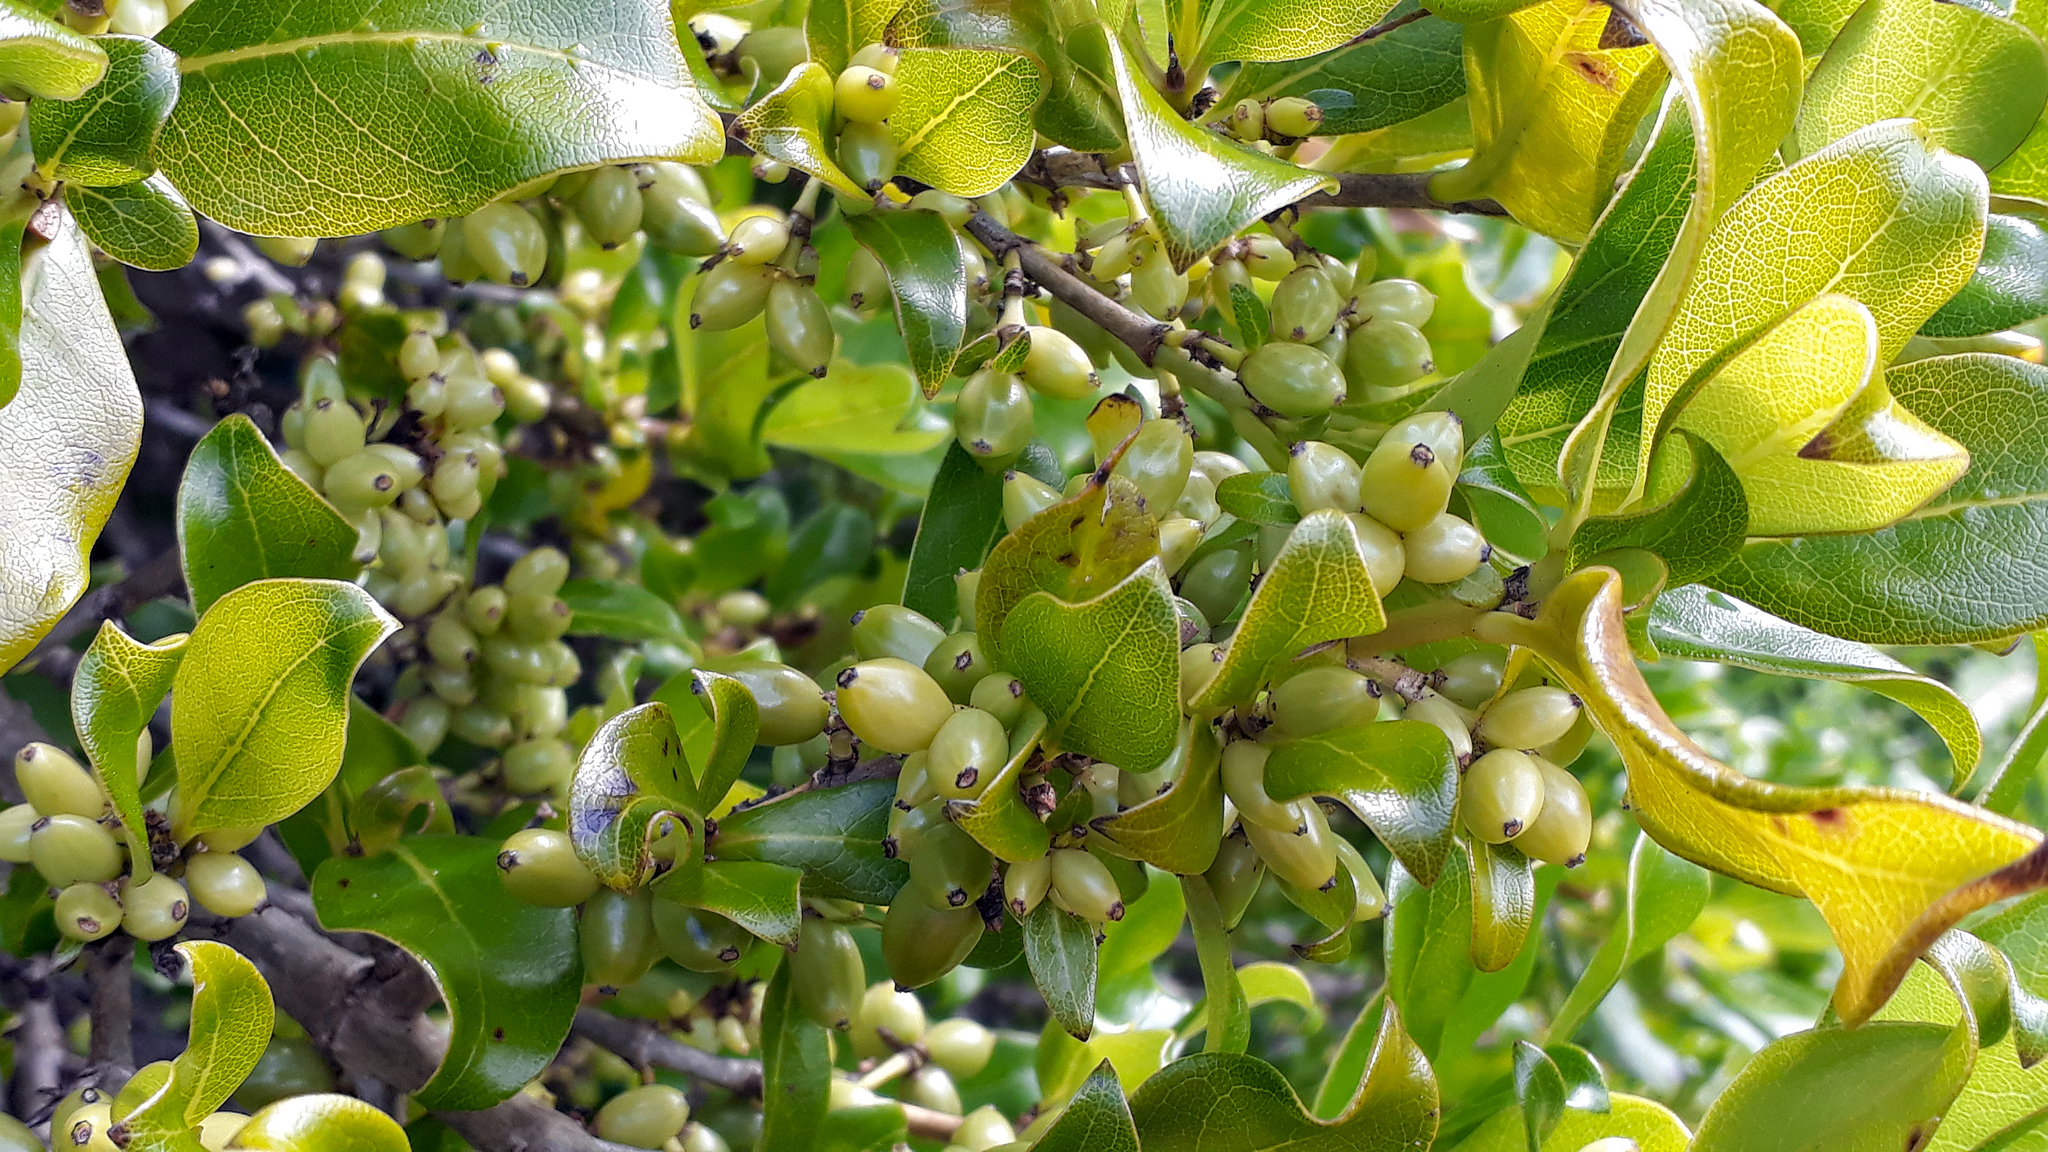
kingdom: Plantae
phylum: Tracheophyta
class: Magnoliopsida
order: Gentianales
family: Rubiaceae
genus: Coprosma
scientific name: Coprosma macrocarpa
